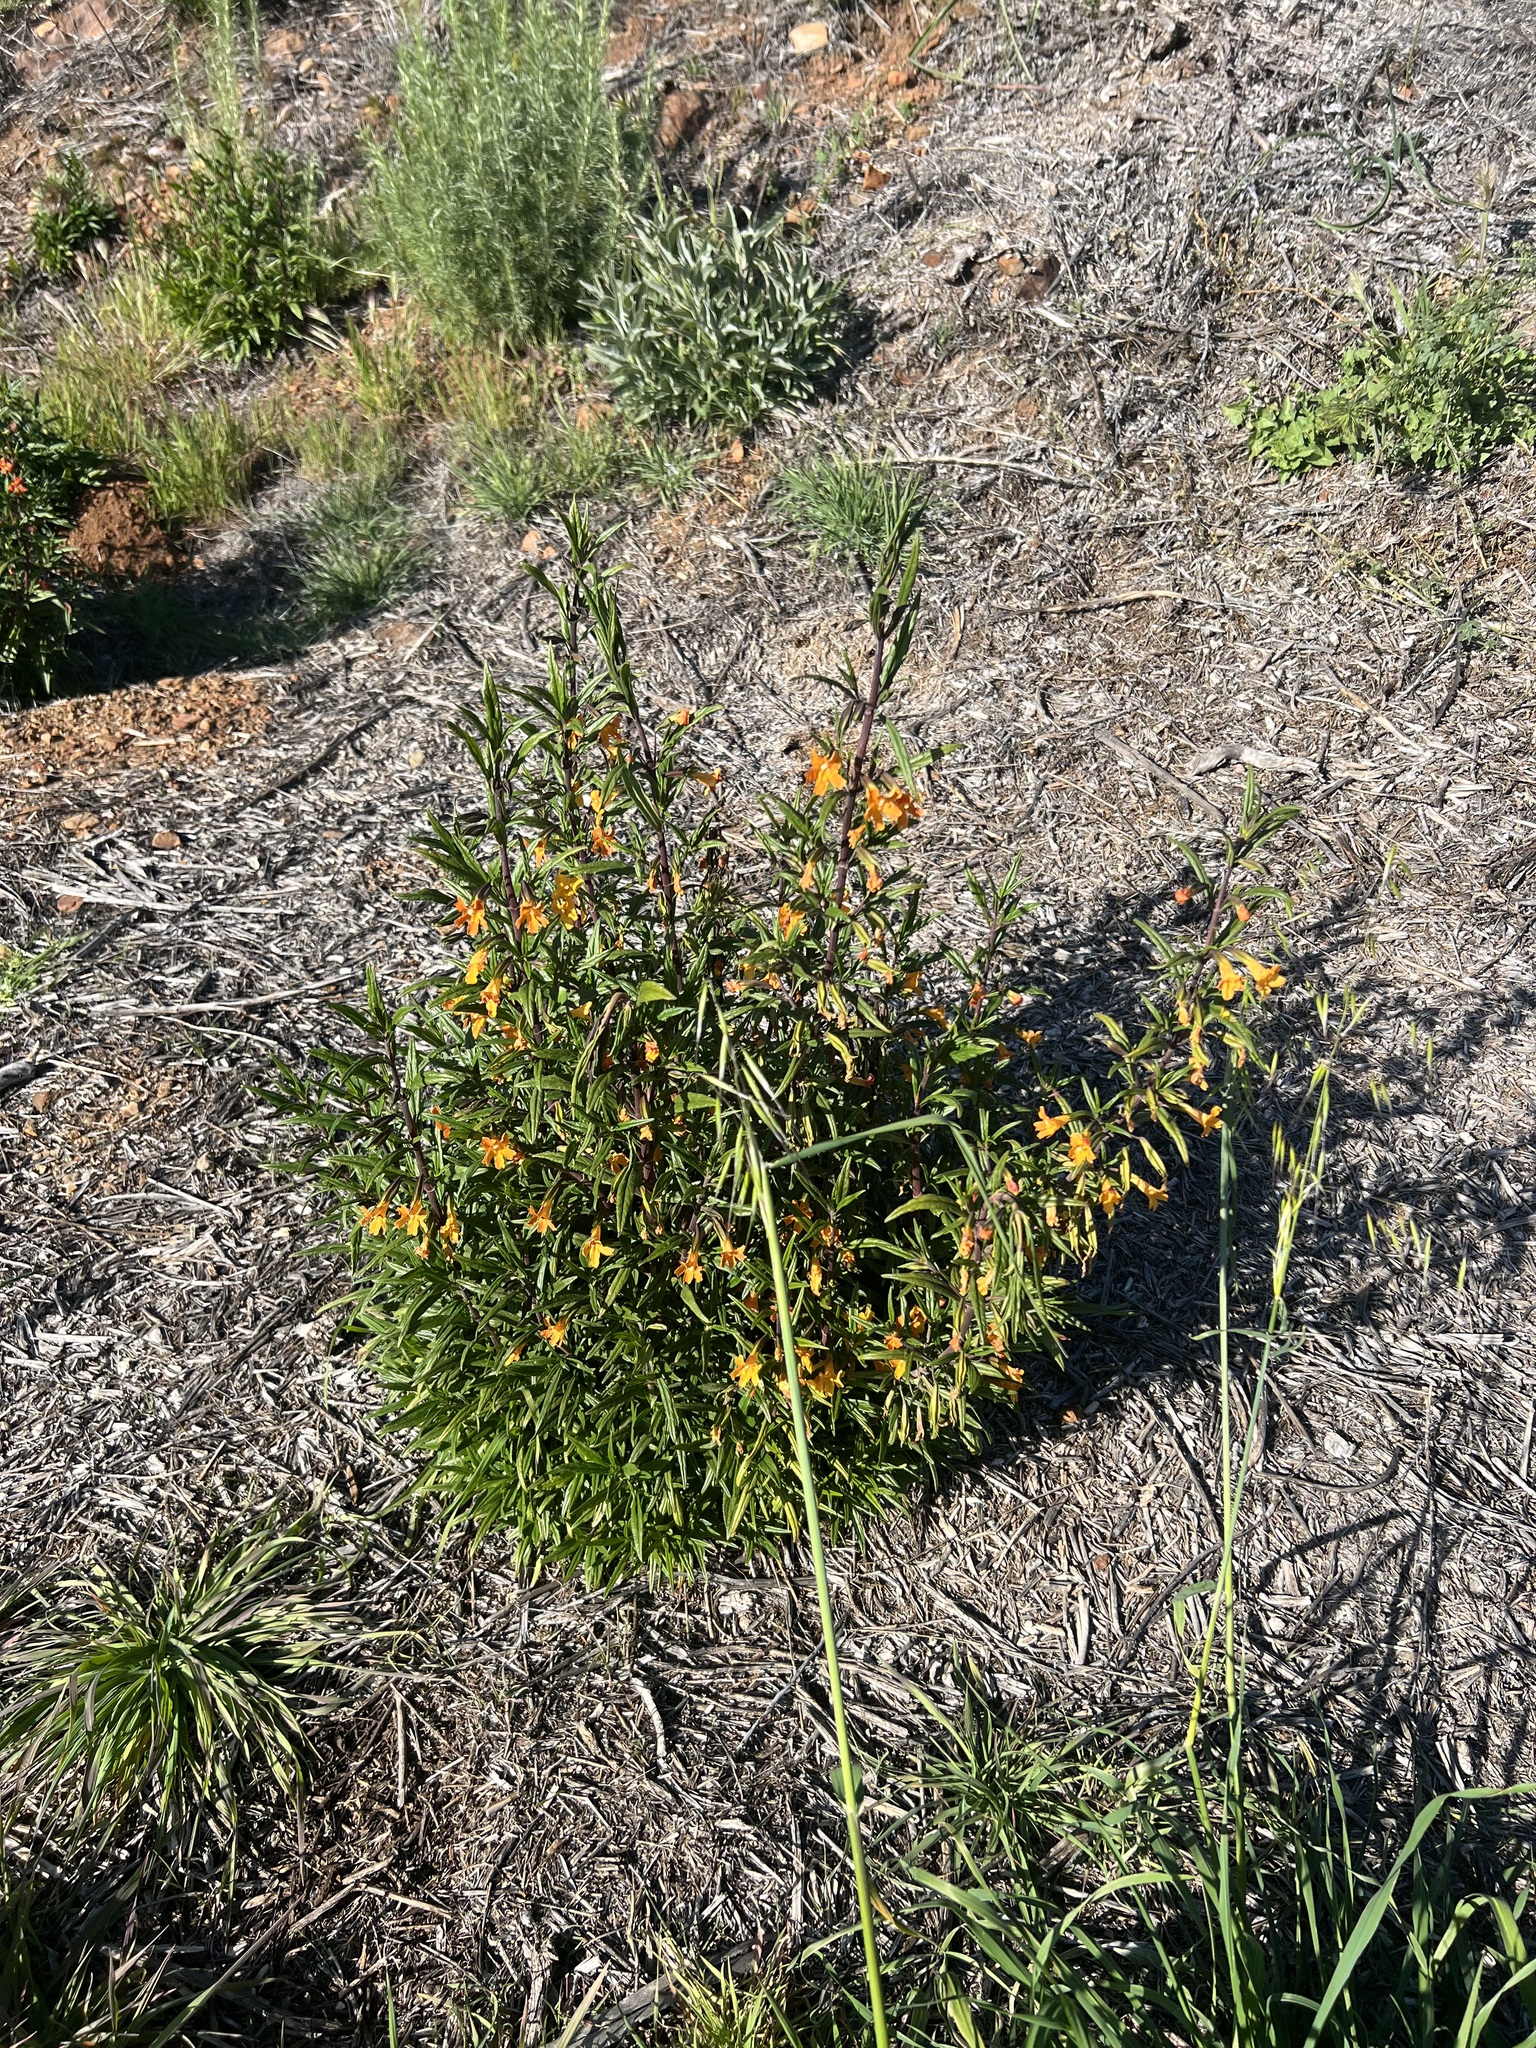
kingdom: Plantae
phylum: Tracheophyta
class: Magnoliopsida
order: Lamiales
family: Phrymaceae
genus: Diplacus
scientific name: Diplacus australis
